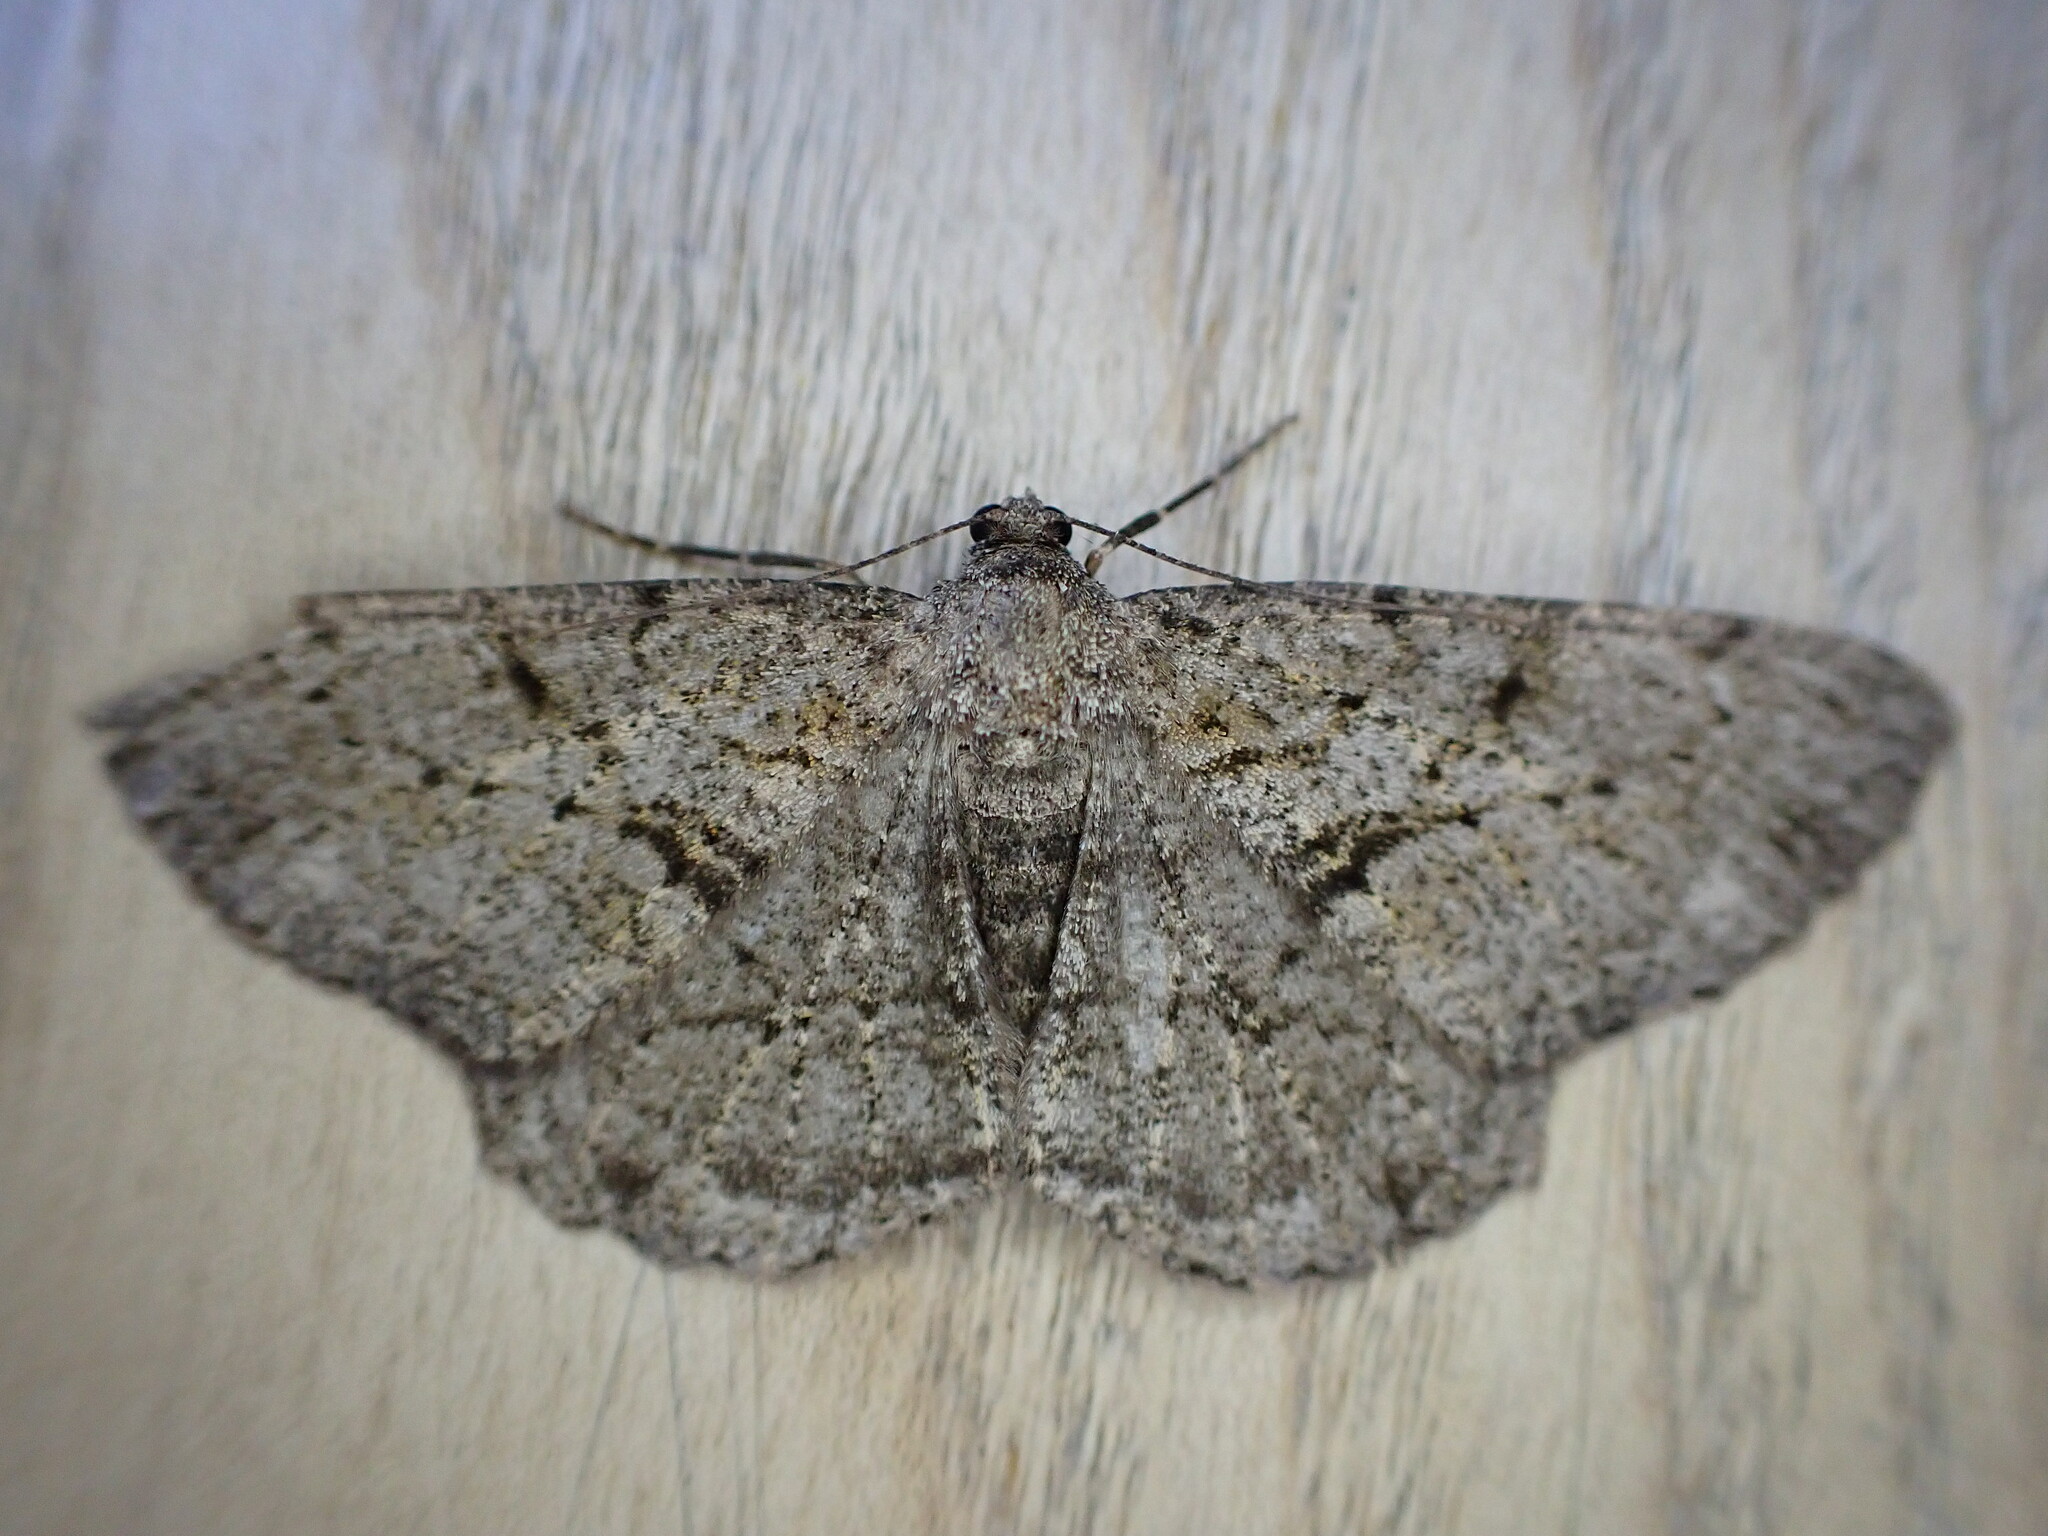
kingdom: Animalia
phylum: Arthropoda
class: Insecta
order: Lepidoptera
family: Geometridae
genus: Peribatodes
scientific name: Peribatodes rhomboidaria
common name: Willow beauty
